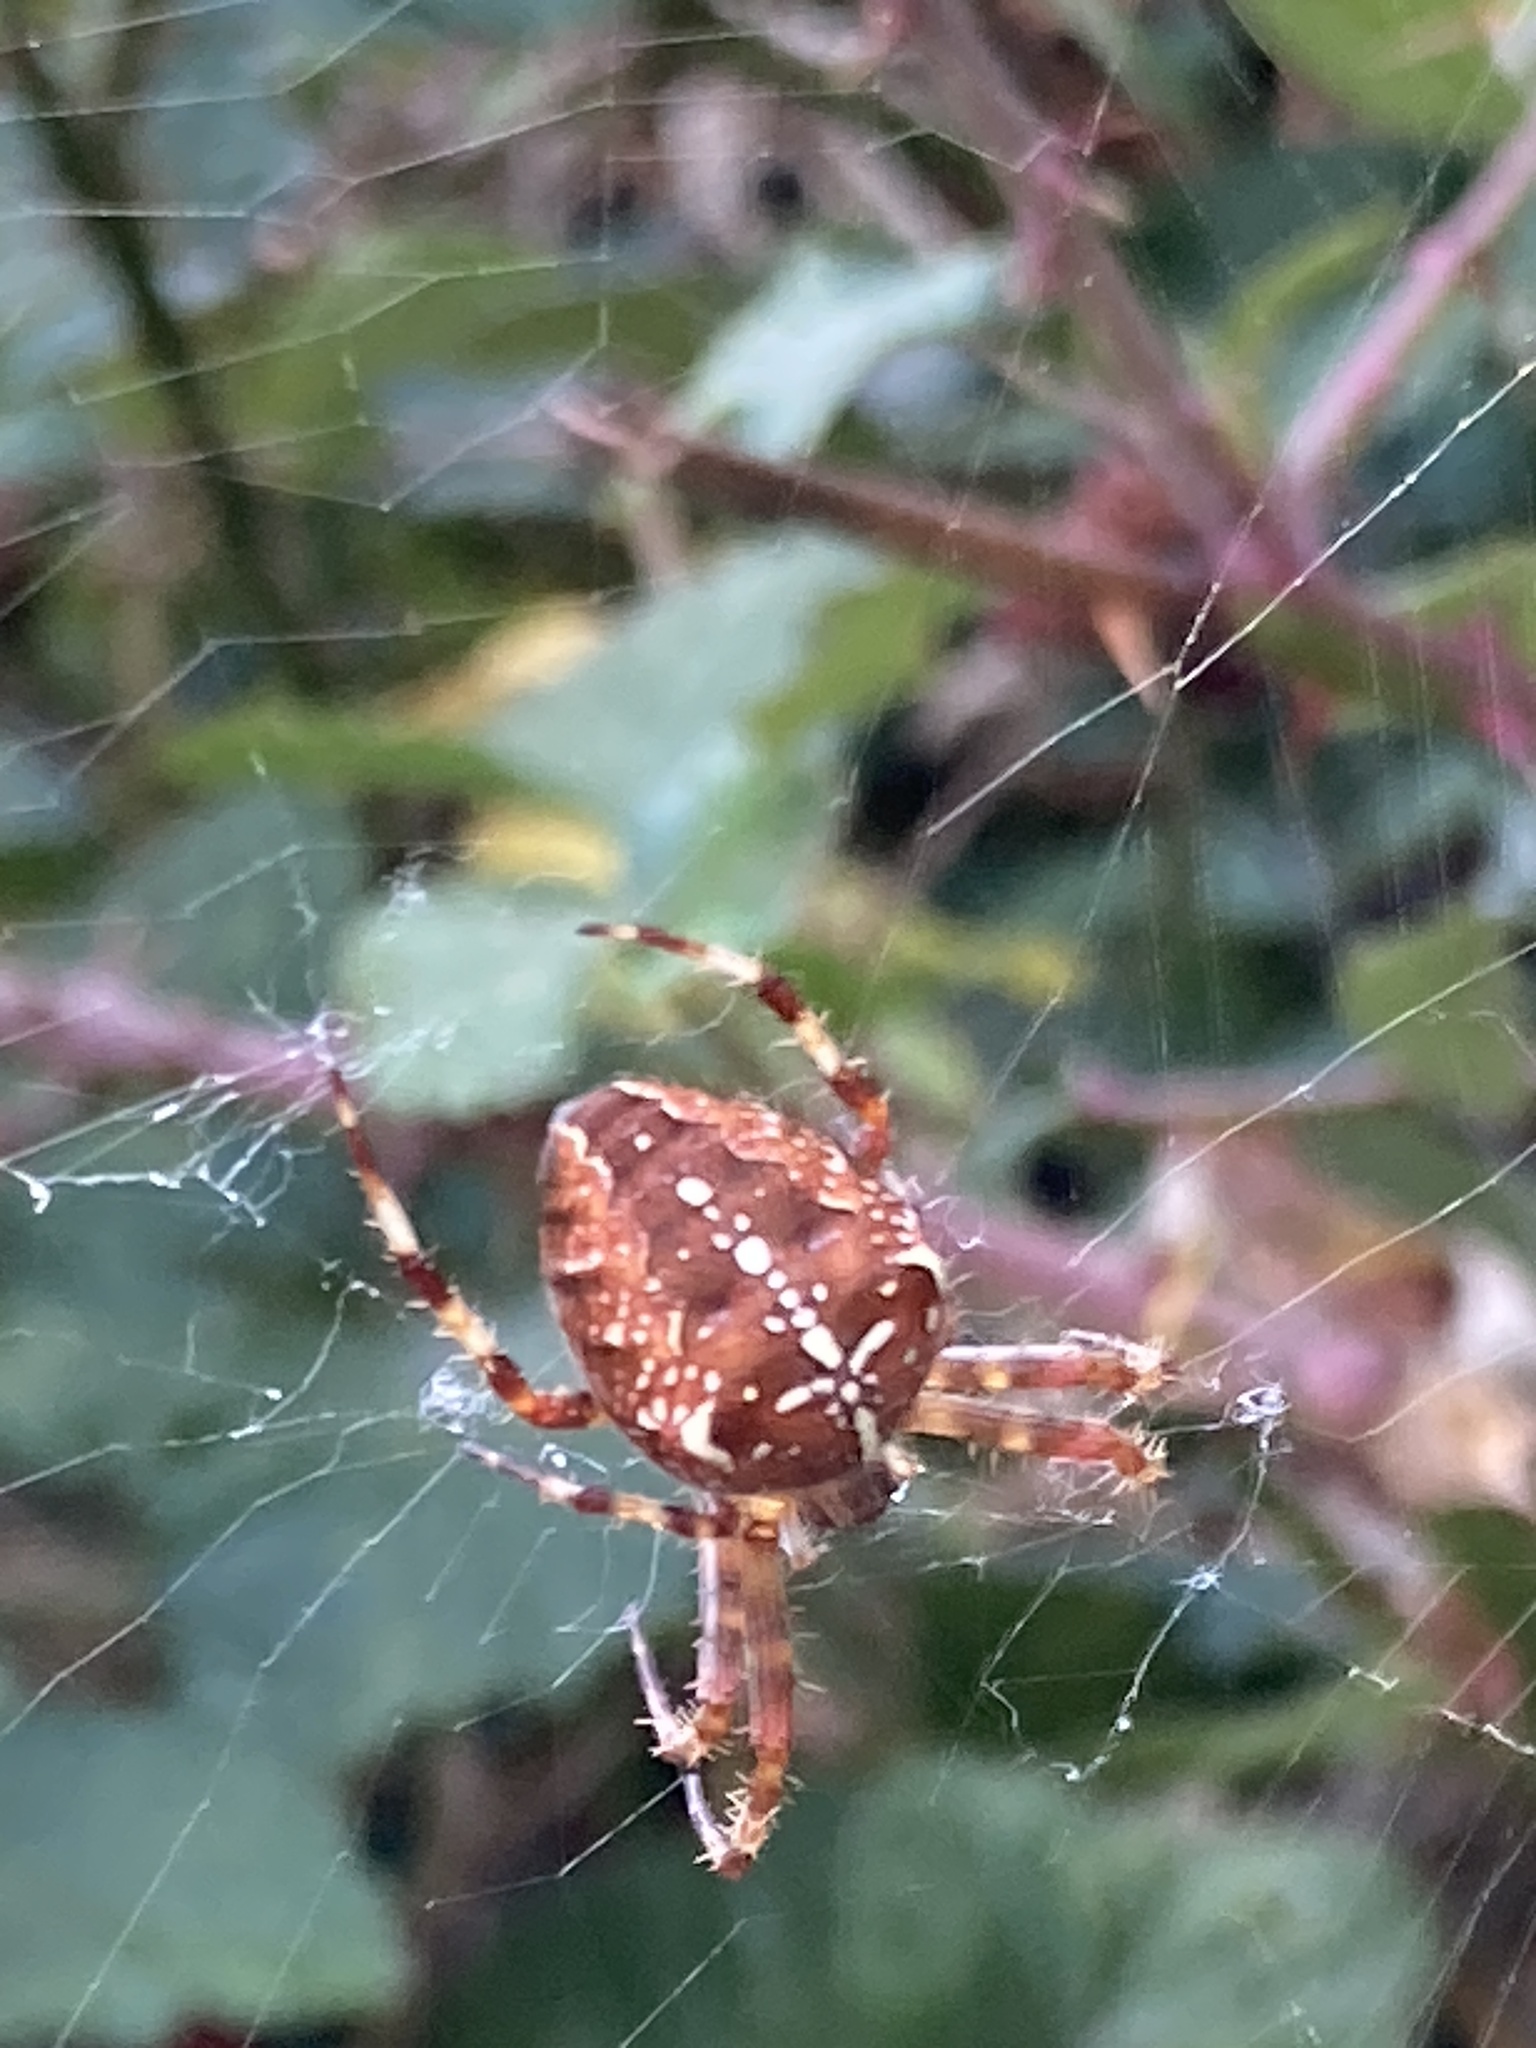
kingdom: Animalia
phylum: Arthropoda
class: Arachnida
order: Araneae
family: Araneidae
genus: Araneus
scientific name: Araneus diadematus
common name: Cross orbweaver
